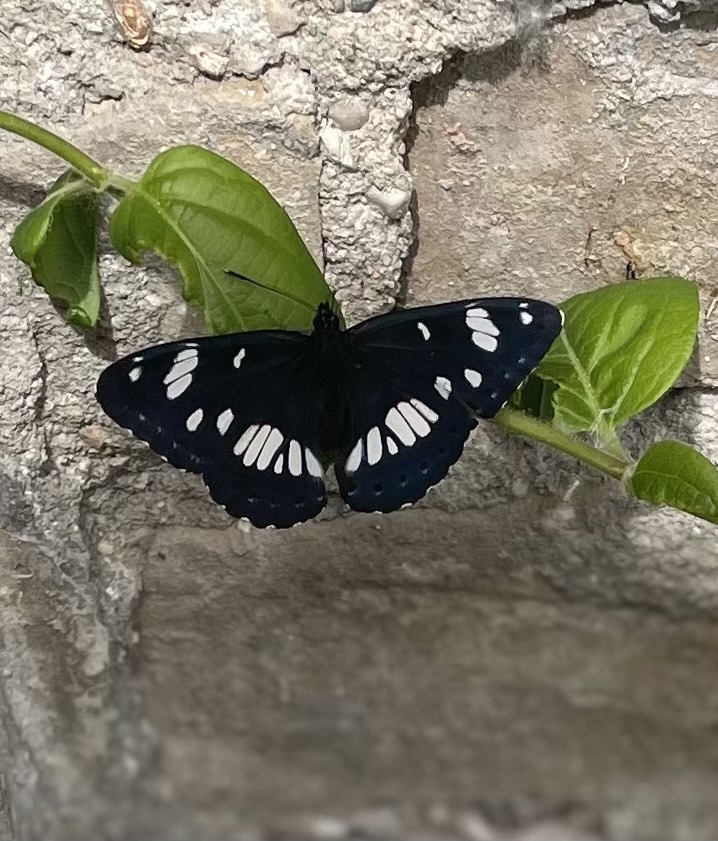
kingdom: Animalia
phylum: Arthropoda
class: Insecta
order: Lepidoptera
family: Nymphalidae
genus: Limenitis
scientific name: Limenitis reducta
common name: Southern white admiral
